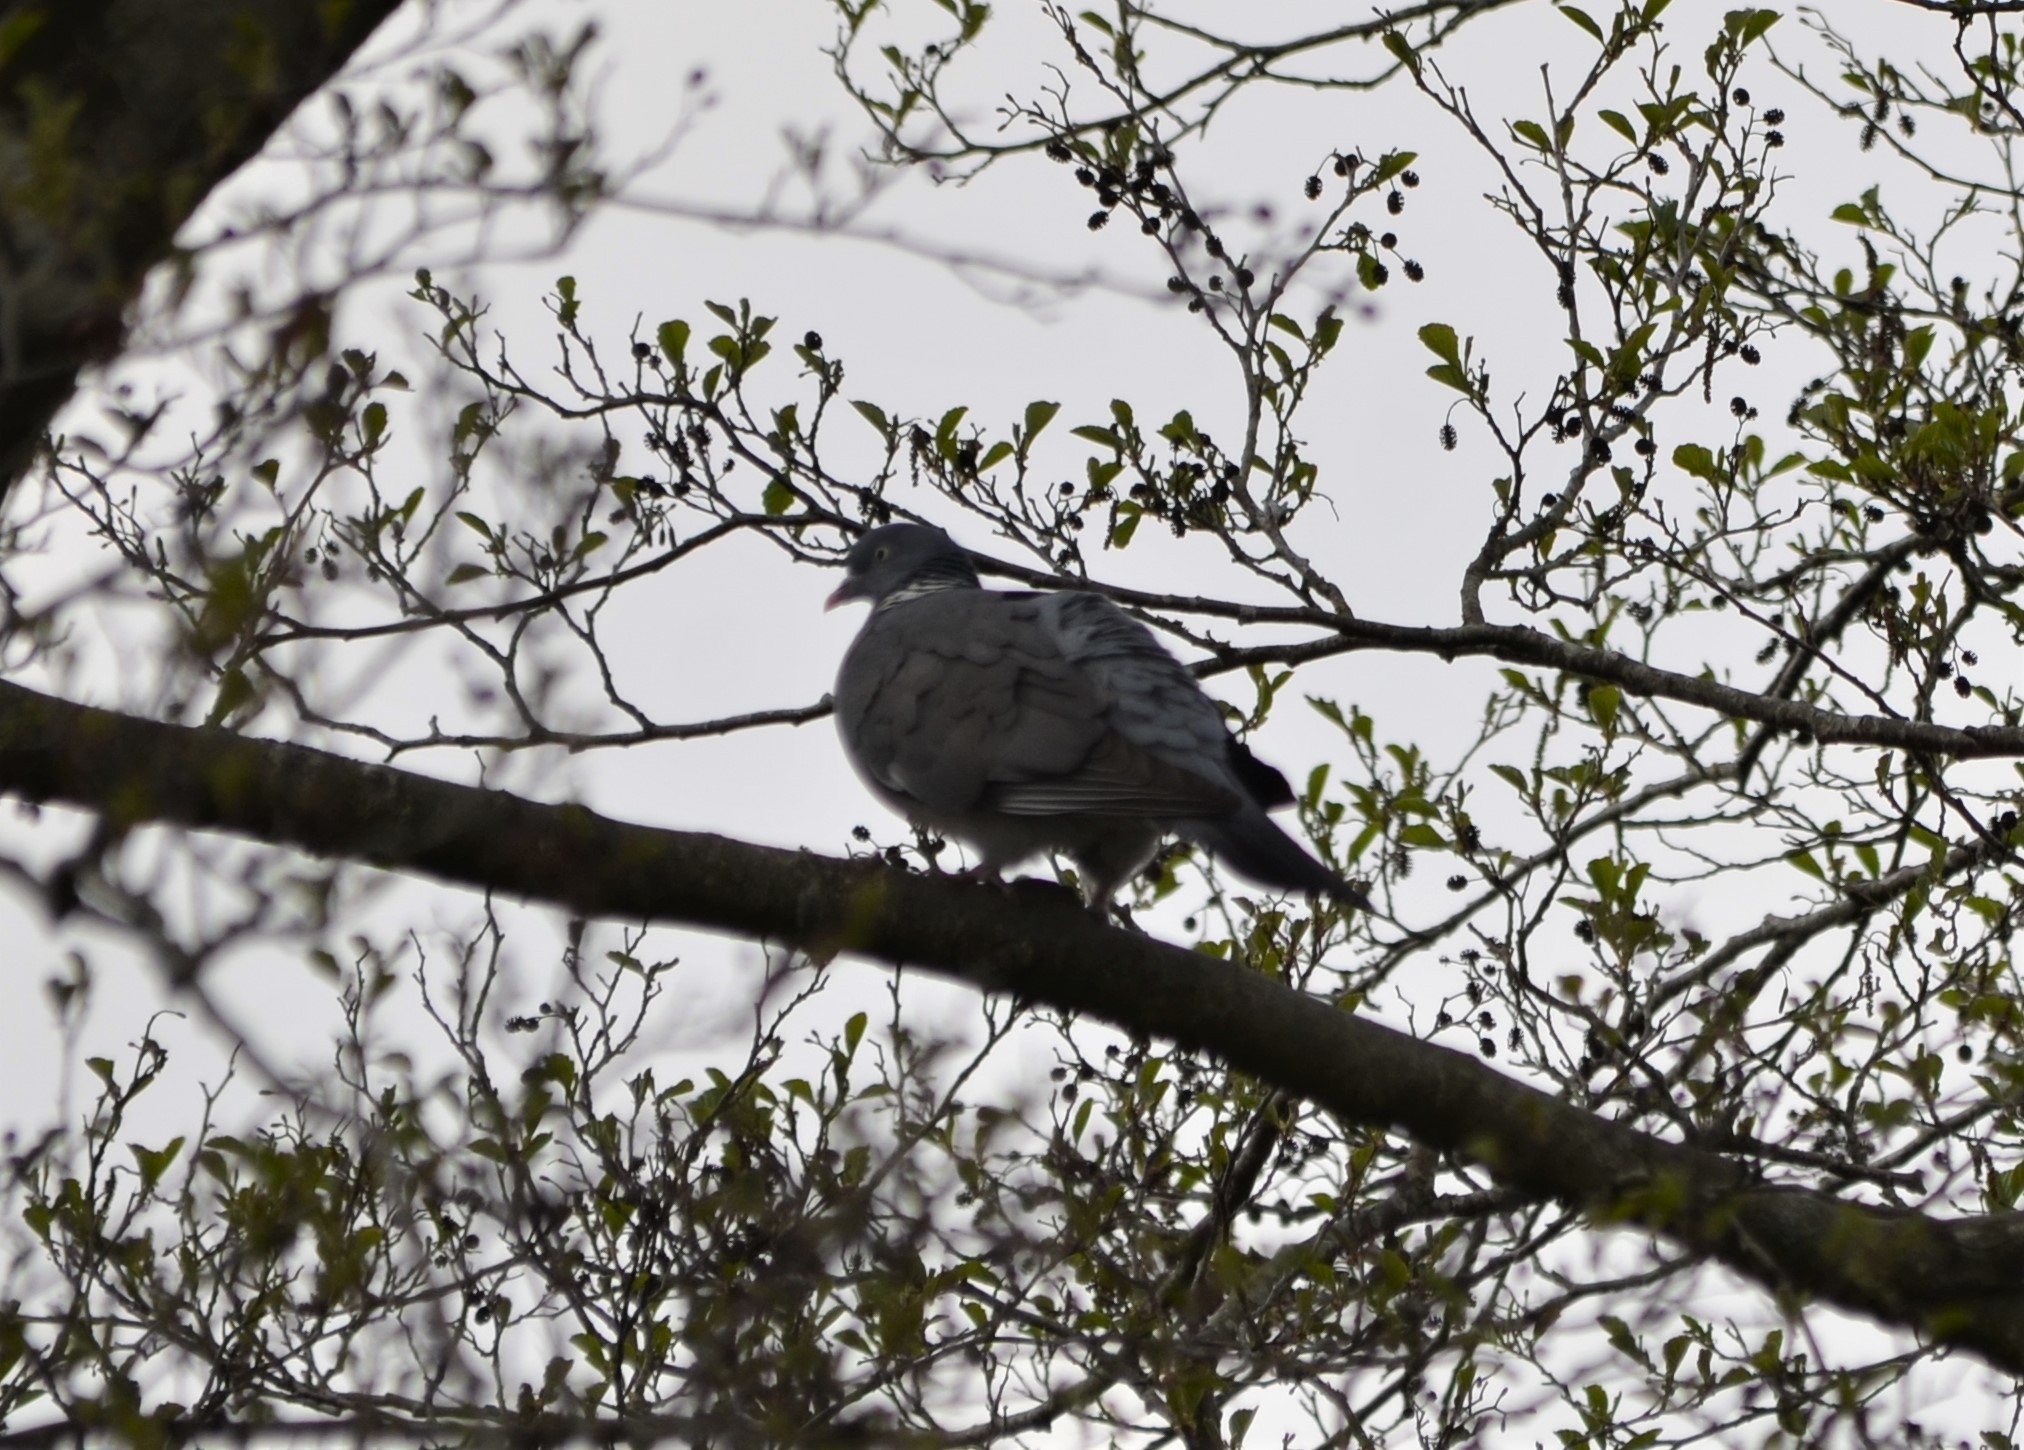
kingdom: Animalia
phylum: Chordata
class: Aves
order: Columbiformes
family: Columbidae
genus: Columba
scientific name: Columba palumbus
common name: Common wood pigeon
